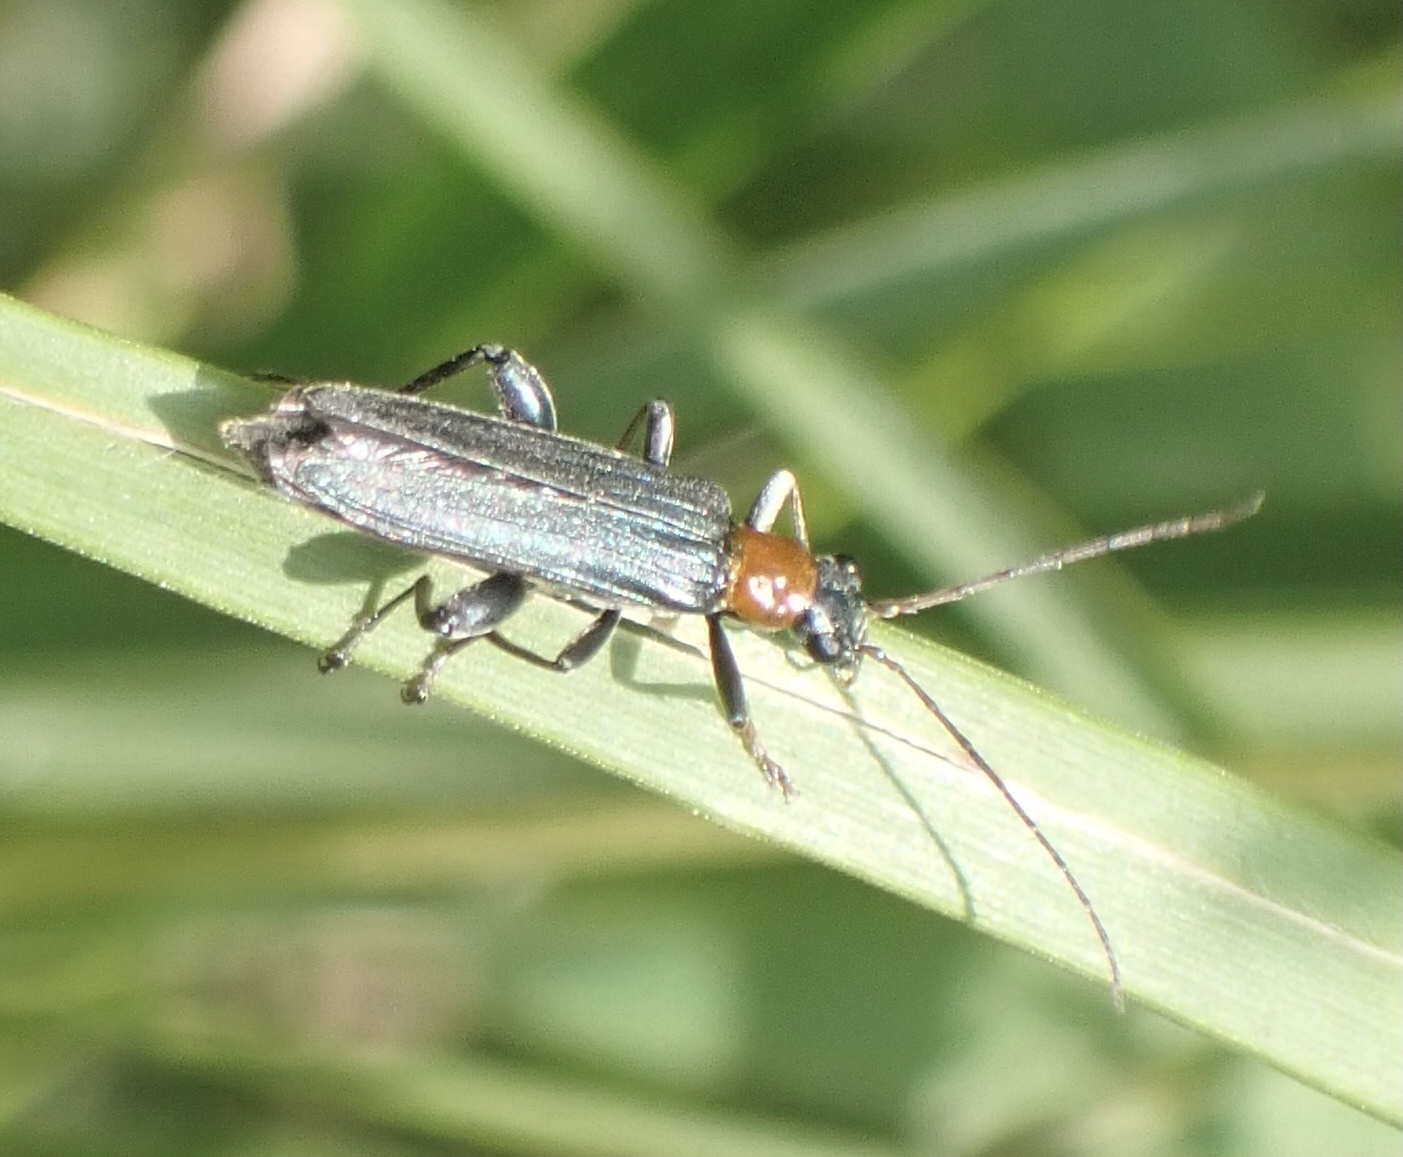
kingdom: Animalia
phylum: Arthropoda
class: Insecta
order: Coleoptera
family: Oedemeridae
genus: Oedemera
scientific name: Oedemera croceicollis
